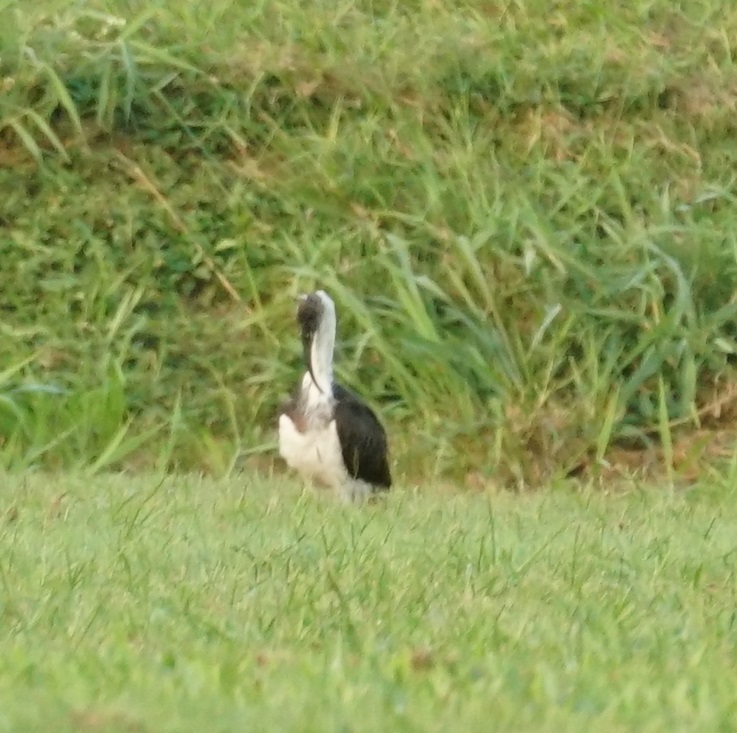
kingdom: Animalia
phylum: Chordata
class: Aves
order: Pelecaniformes
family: Threskiornithidae
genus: Threskiornis
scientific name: Threskiornis spinicollis
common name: Straw-necked ibis
